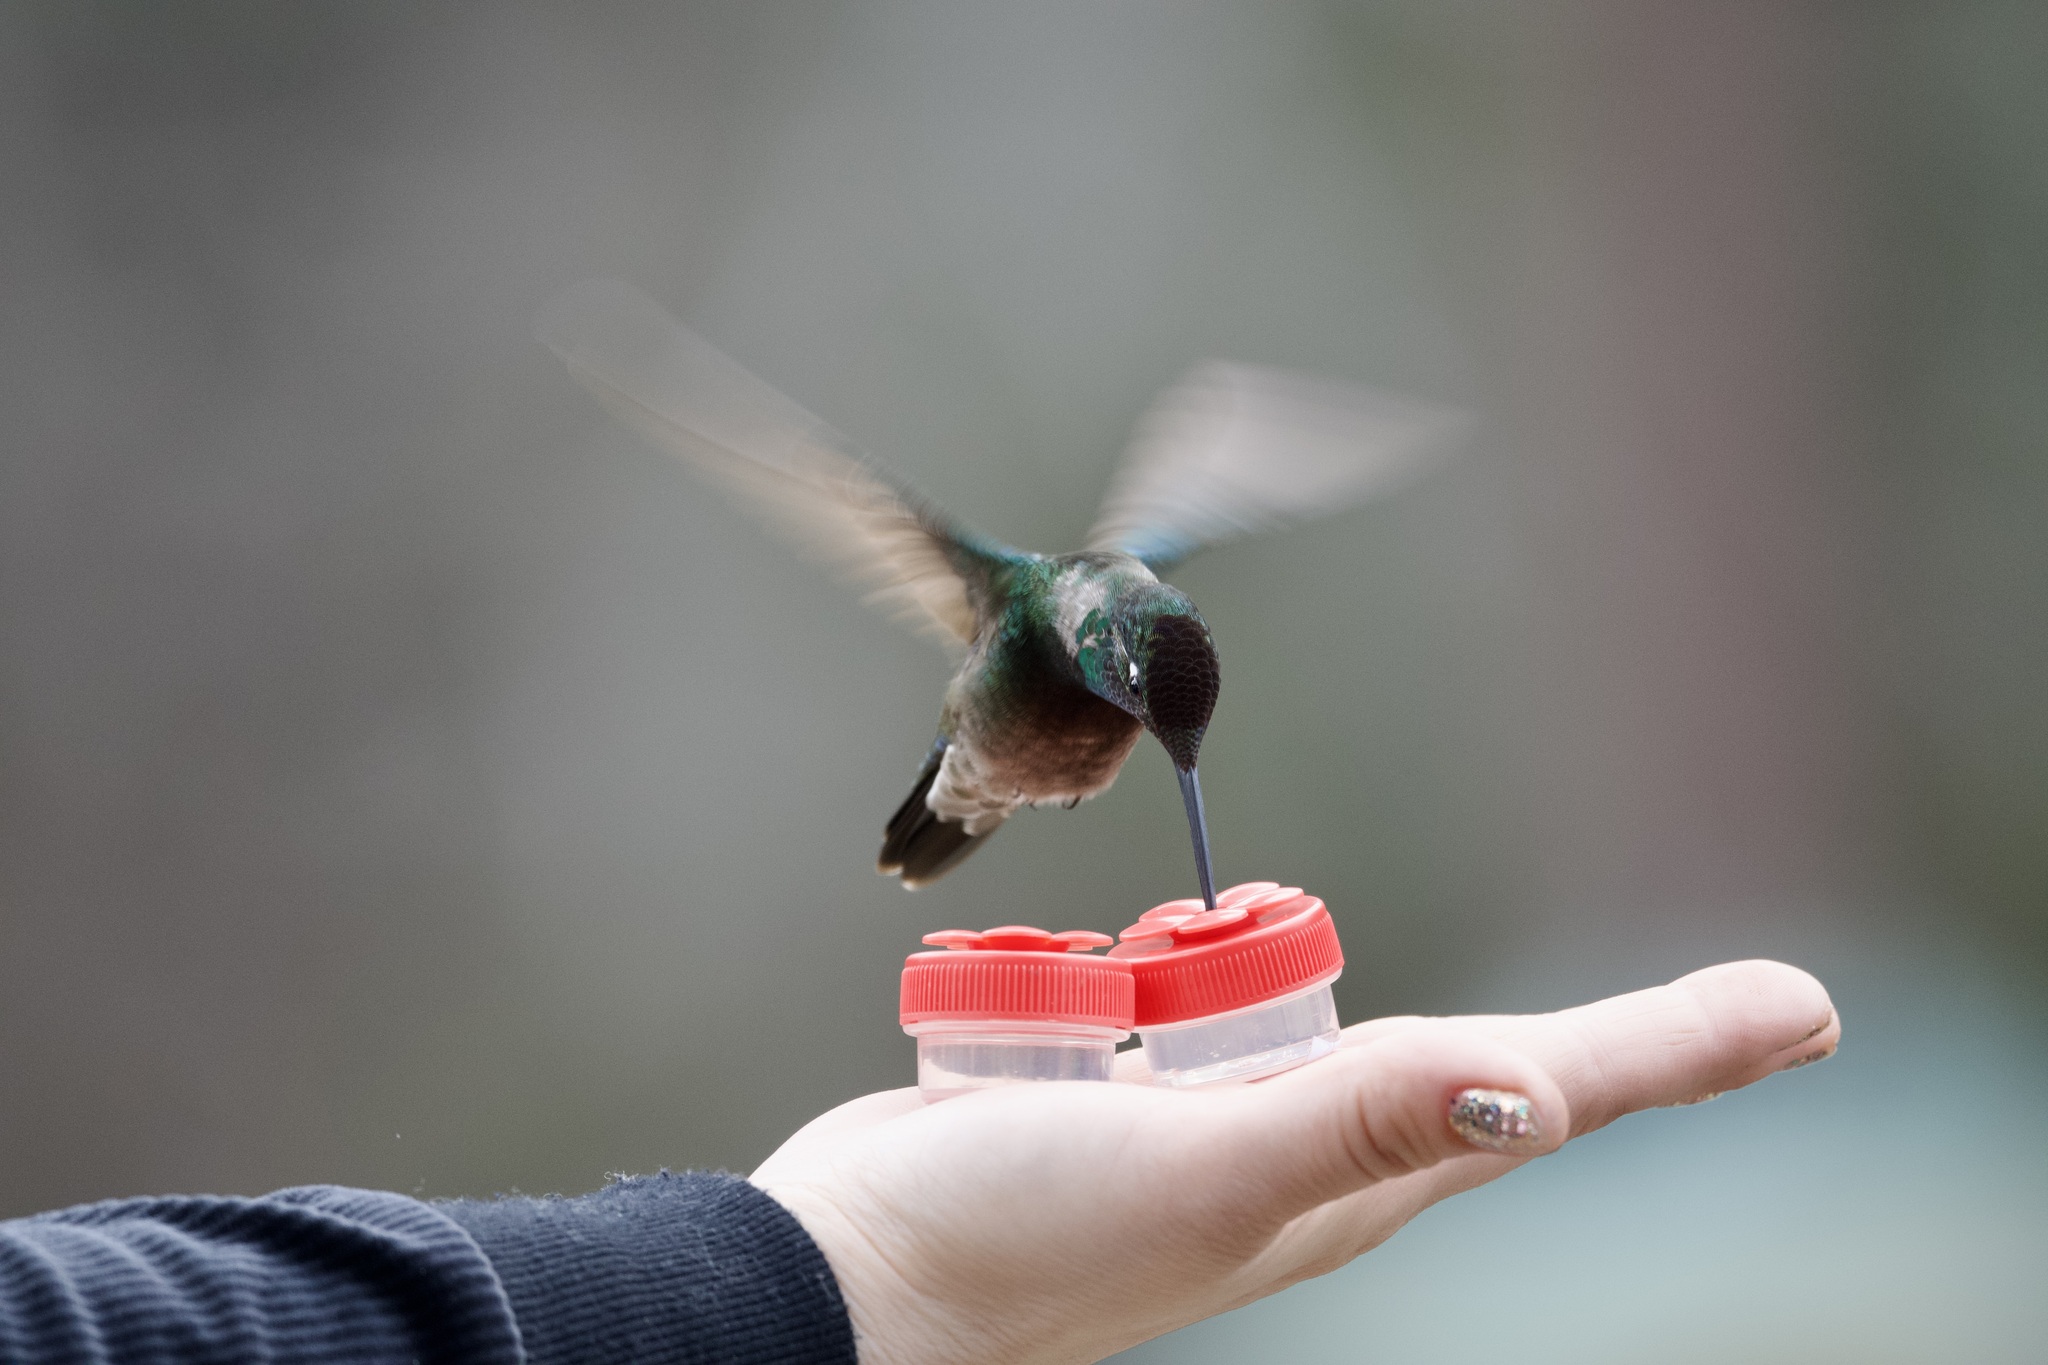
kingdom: Animalia
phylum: Chordata
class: Aves
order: Apodiformes
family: Trochilidae
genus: Eugenes
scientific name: Eugenes fulgens
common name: Magnificent hummingbird
